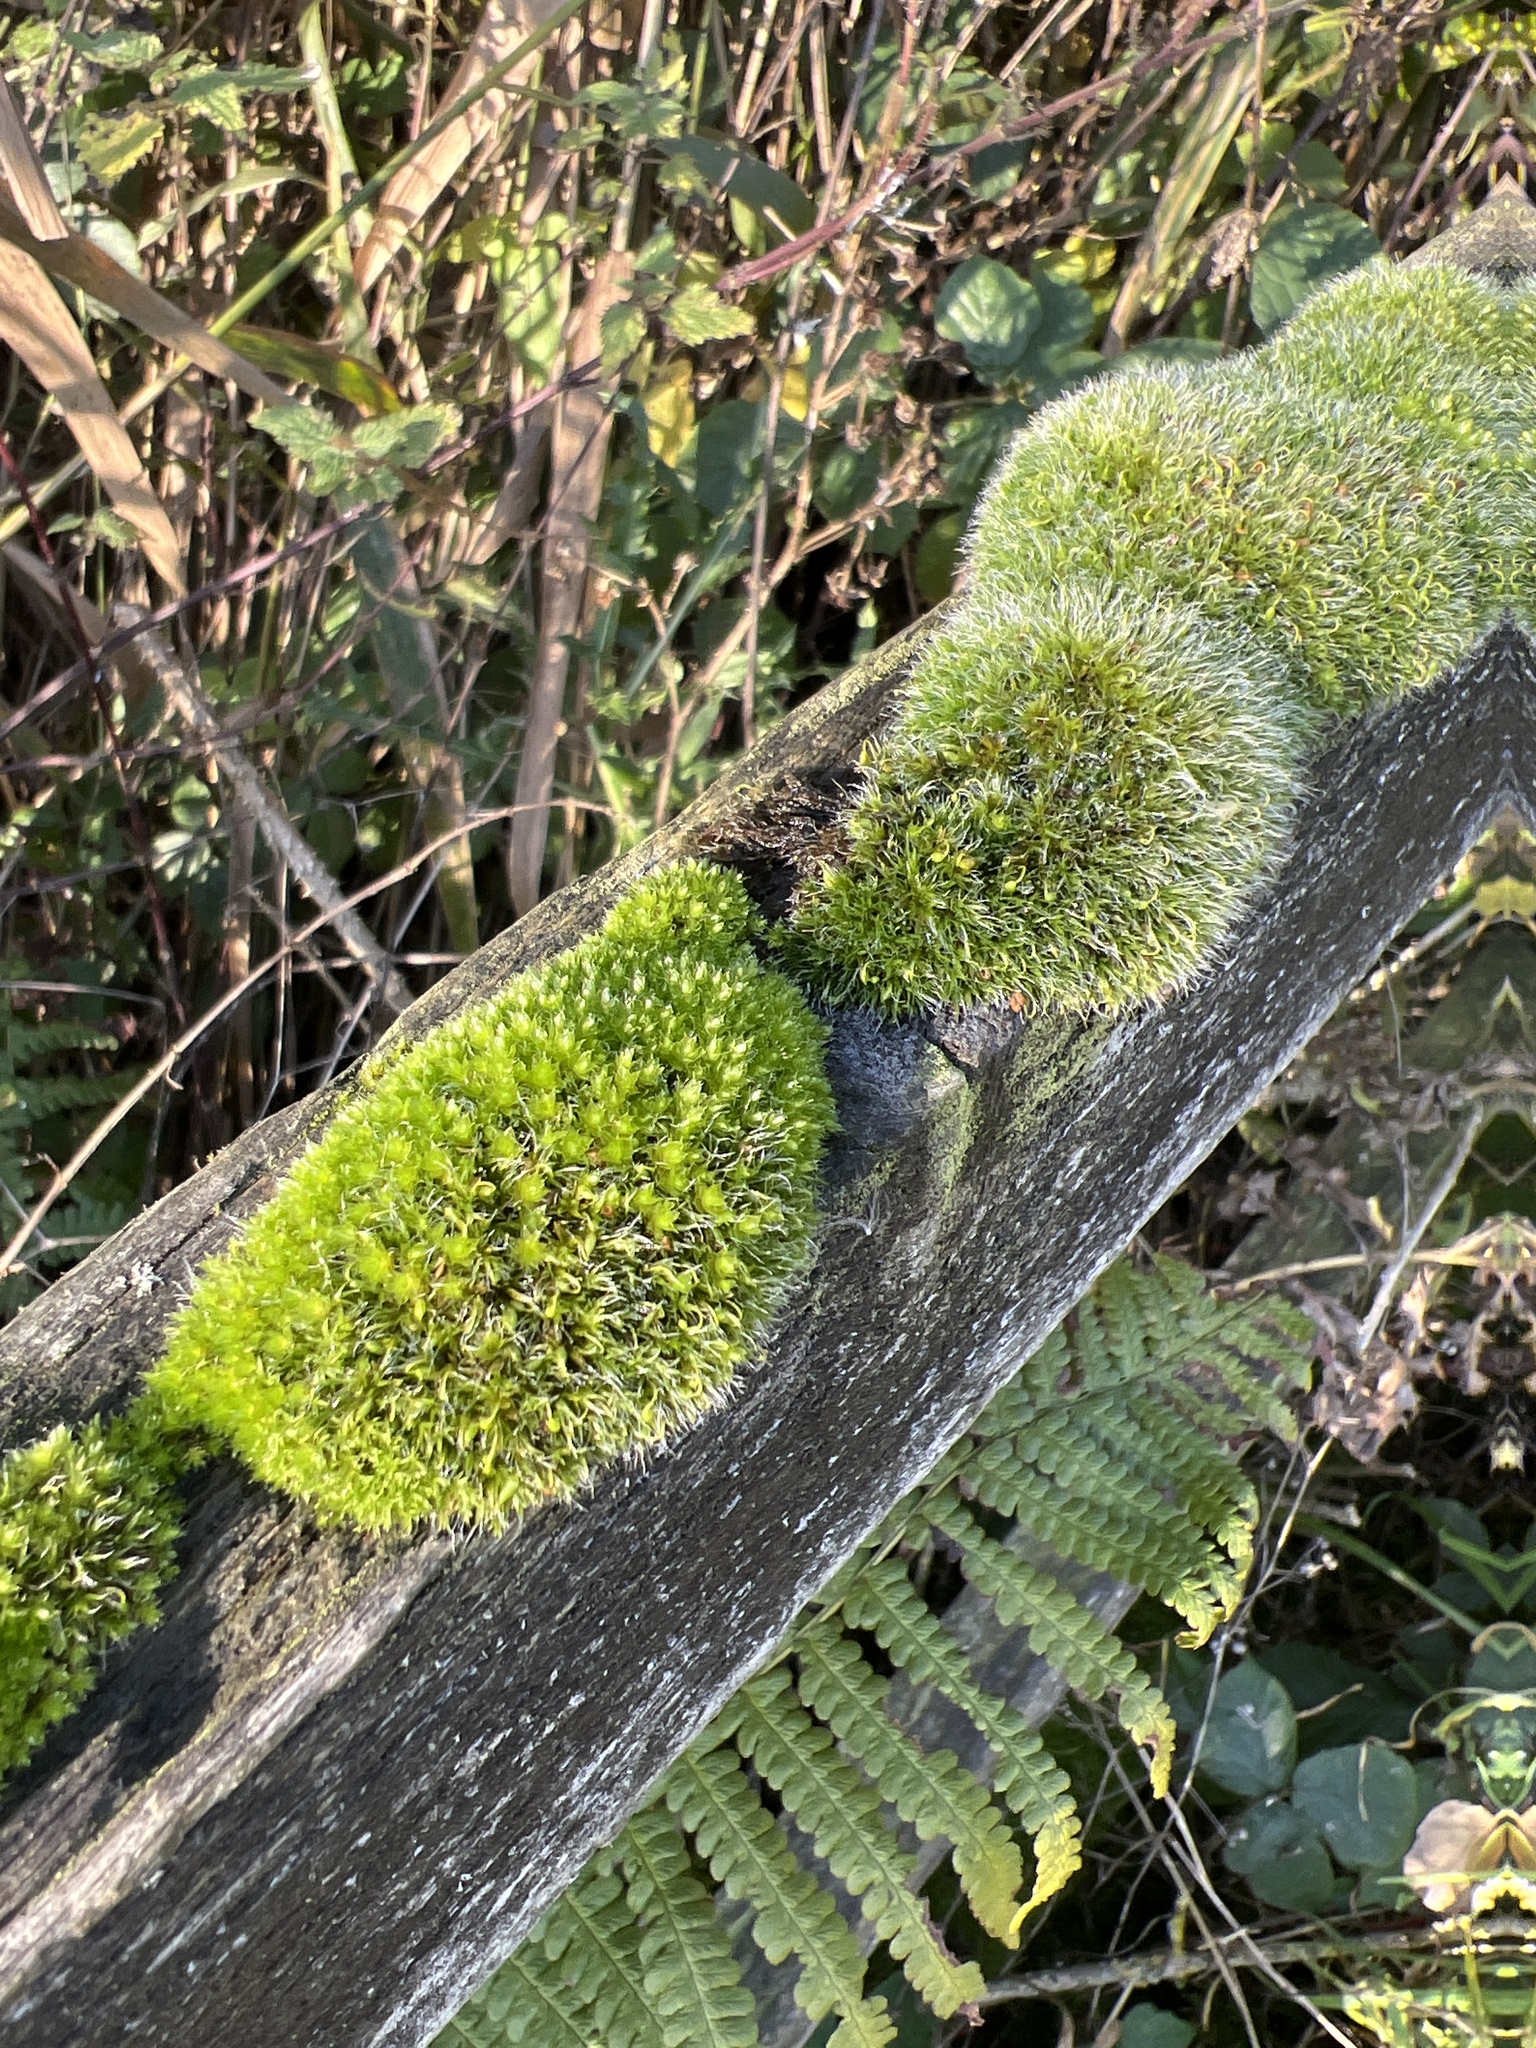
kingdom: Plantae
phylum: Bryophyta
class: Bryopsida
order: Grimmiales
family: Grimmiaceae
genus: Grimmia
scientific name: Grimmia pulvinata
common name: Grey-cushioned grimmia
